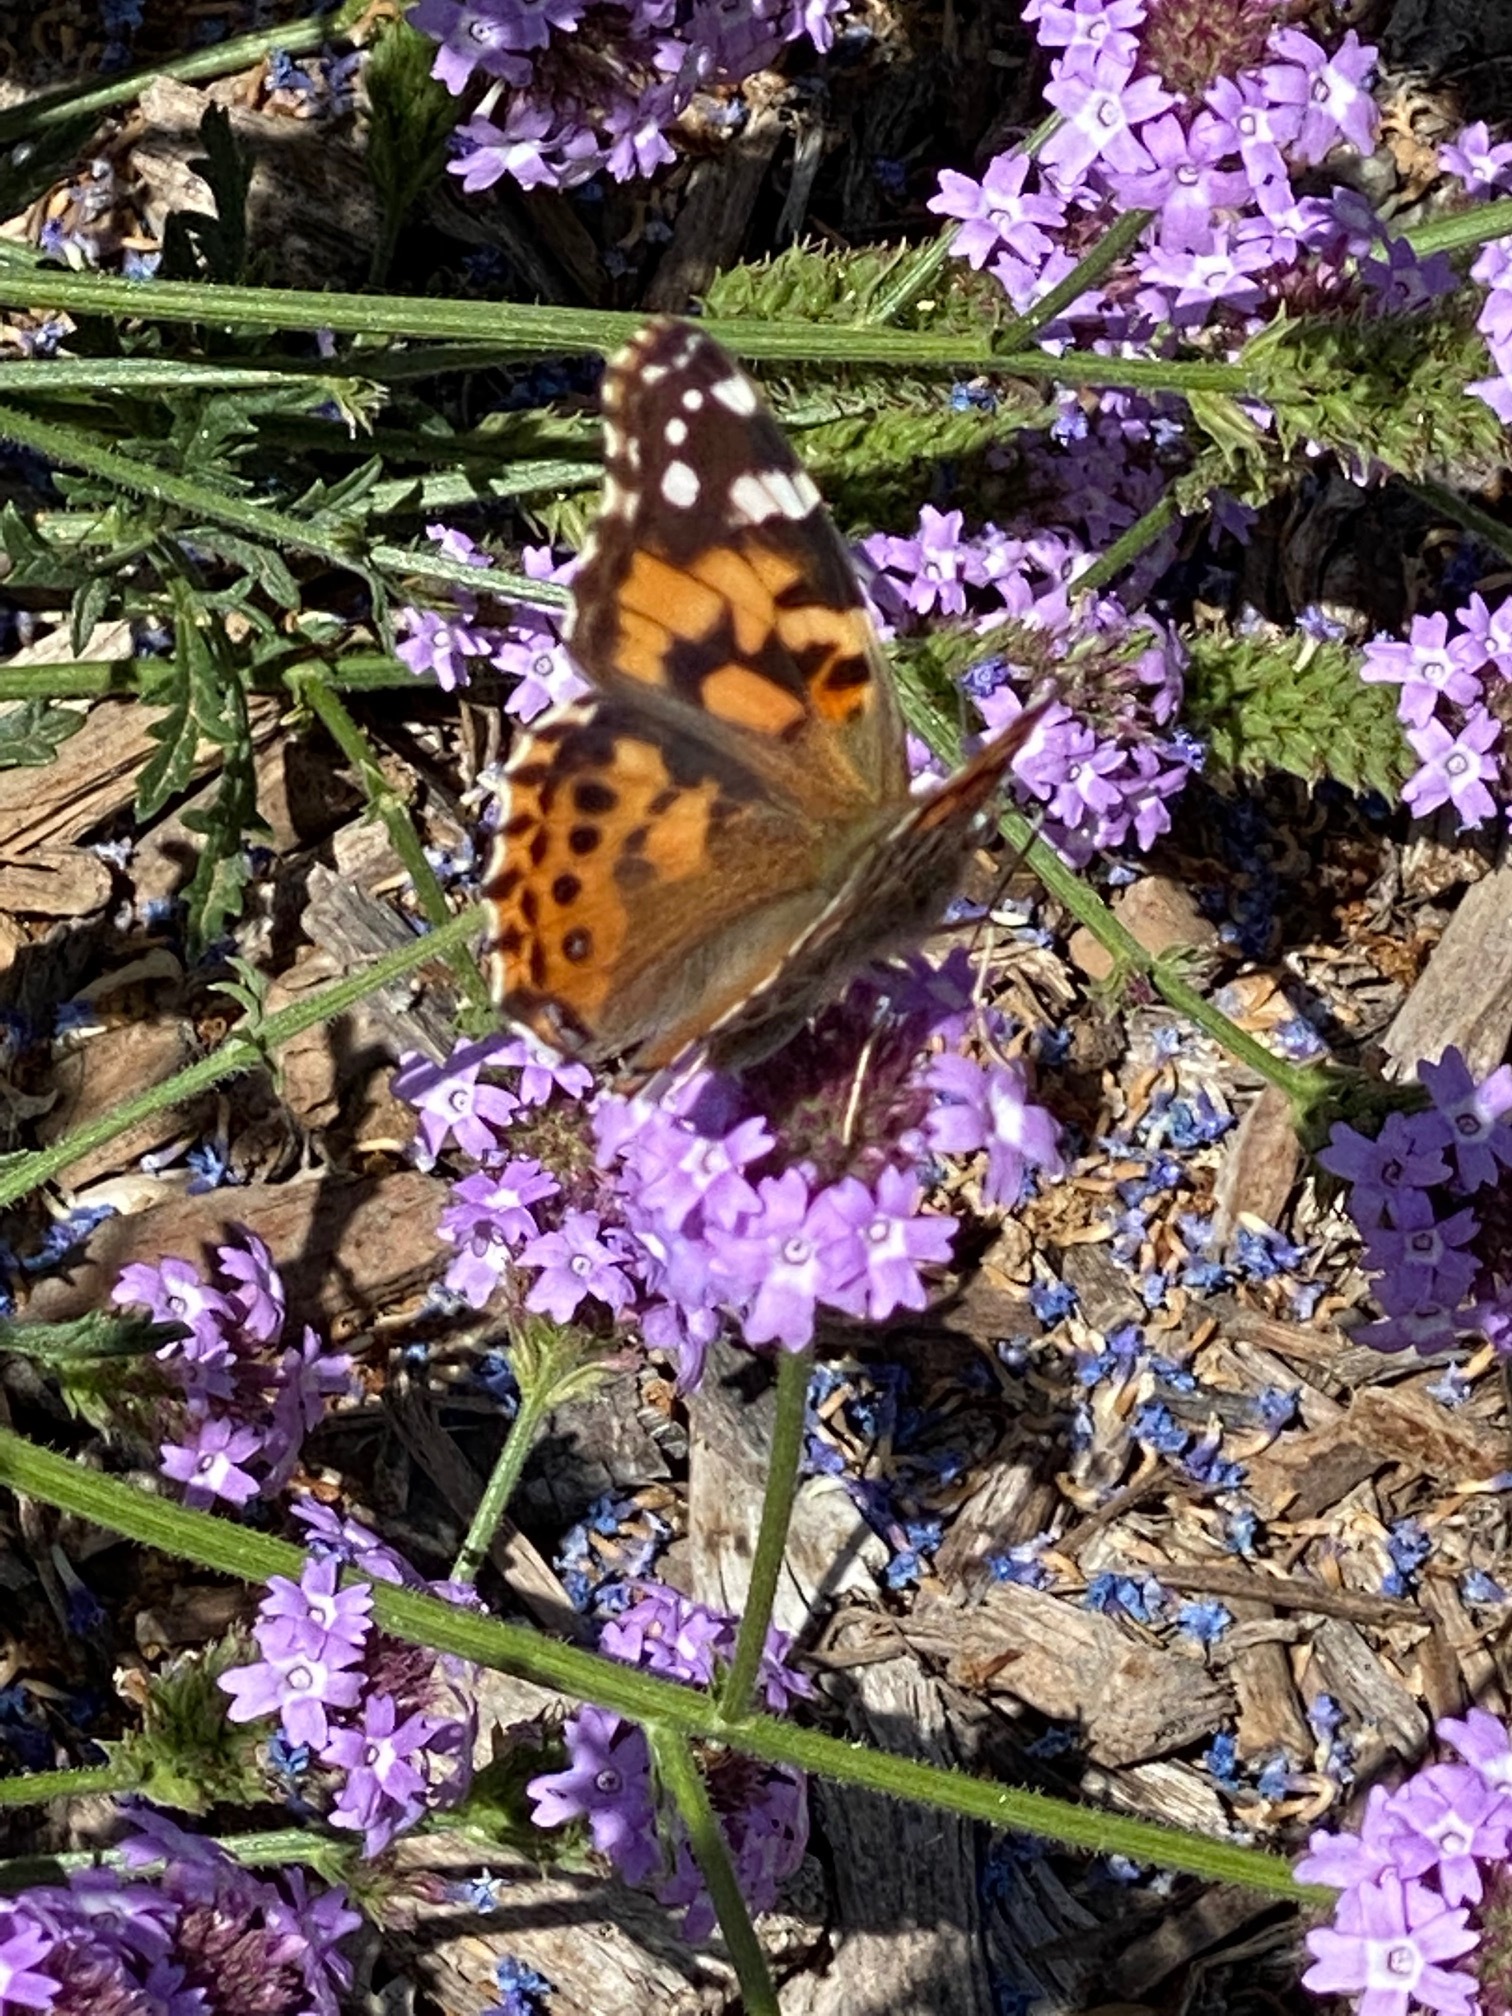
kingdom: Animalia
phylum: Arthropoda
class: Insecta
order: Lepidoptera
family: Nymphalidae
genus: Vanessa
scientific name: Vanessa cardui
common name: Painted lady
